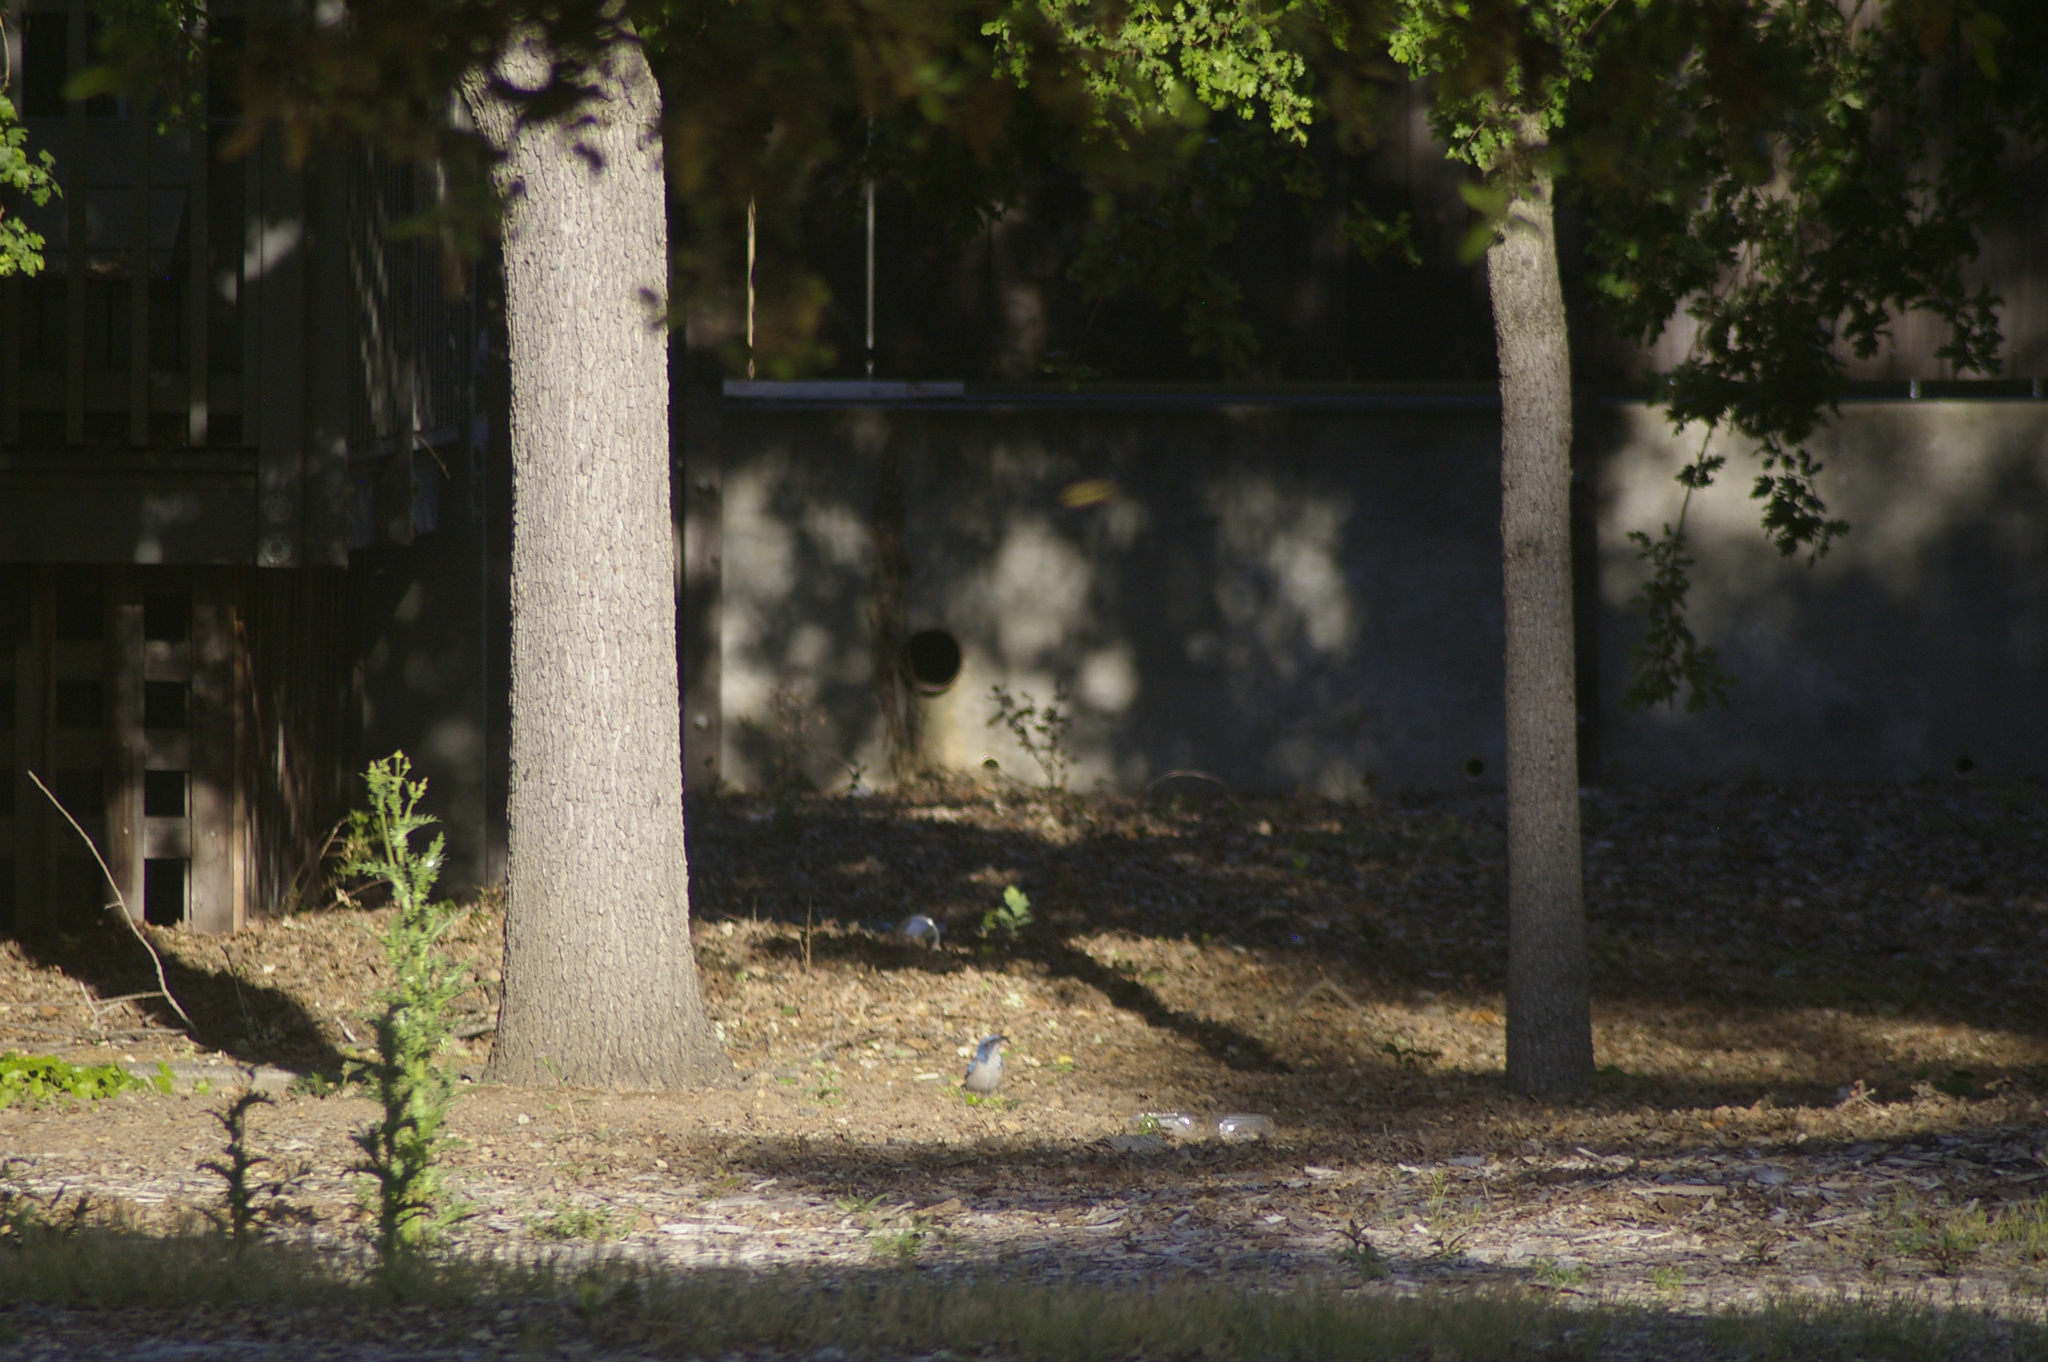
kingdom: Animalia
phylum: Chordata
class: Aves
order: Passeriformes
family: Corvidae
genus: Aphelocoma
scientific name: Aphelocoma californica
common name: California scrub-jay
